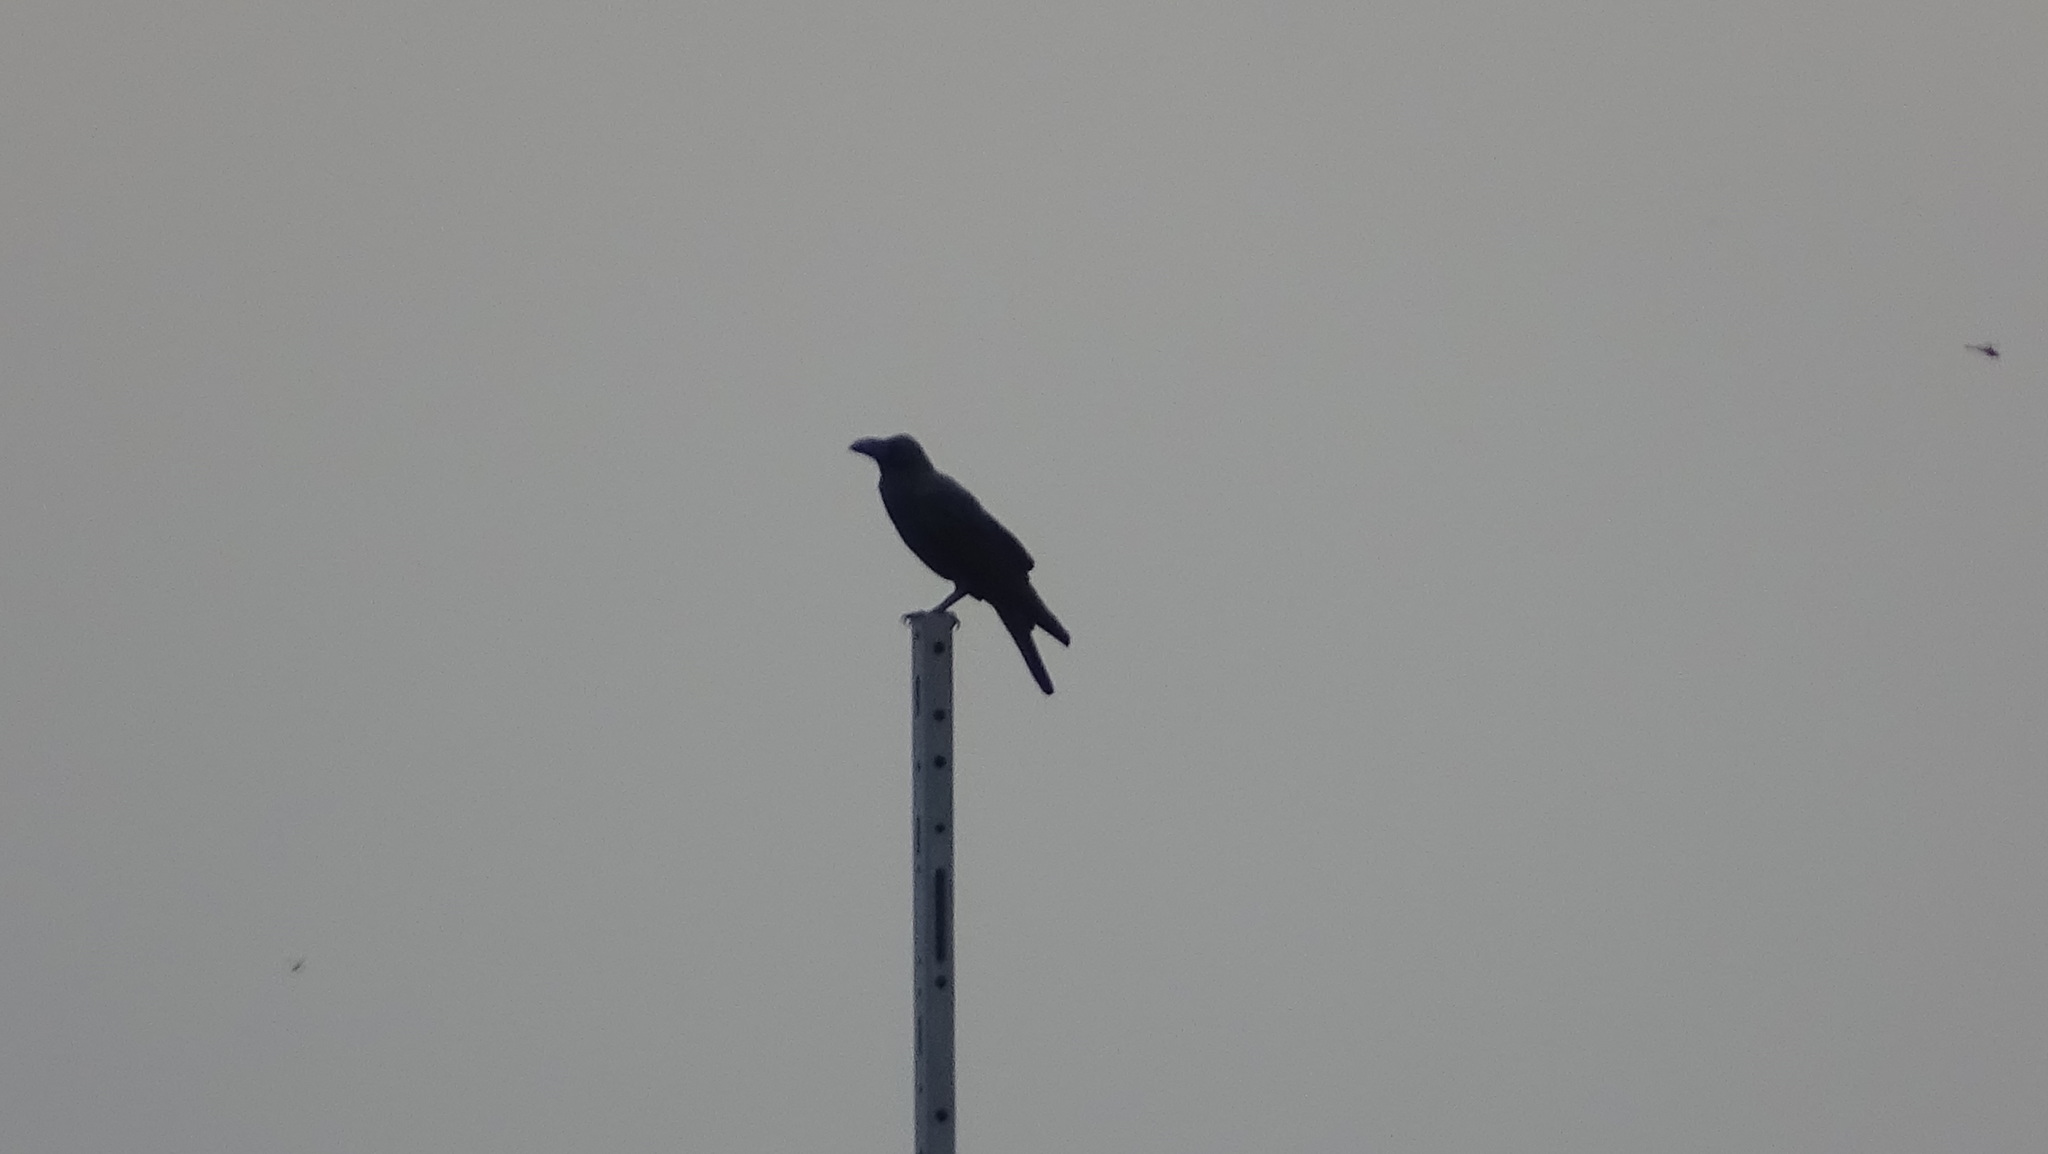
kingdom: Animalia
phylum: Chordata
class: Aves
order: Passeriformes
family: Corvidae
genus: Corvus
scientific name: Corvus macrorhynchos
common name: Large-billed crow
